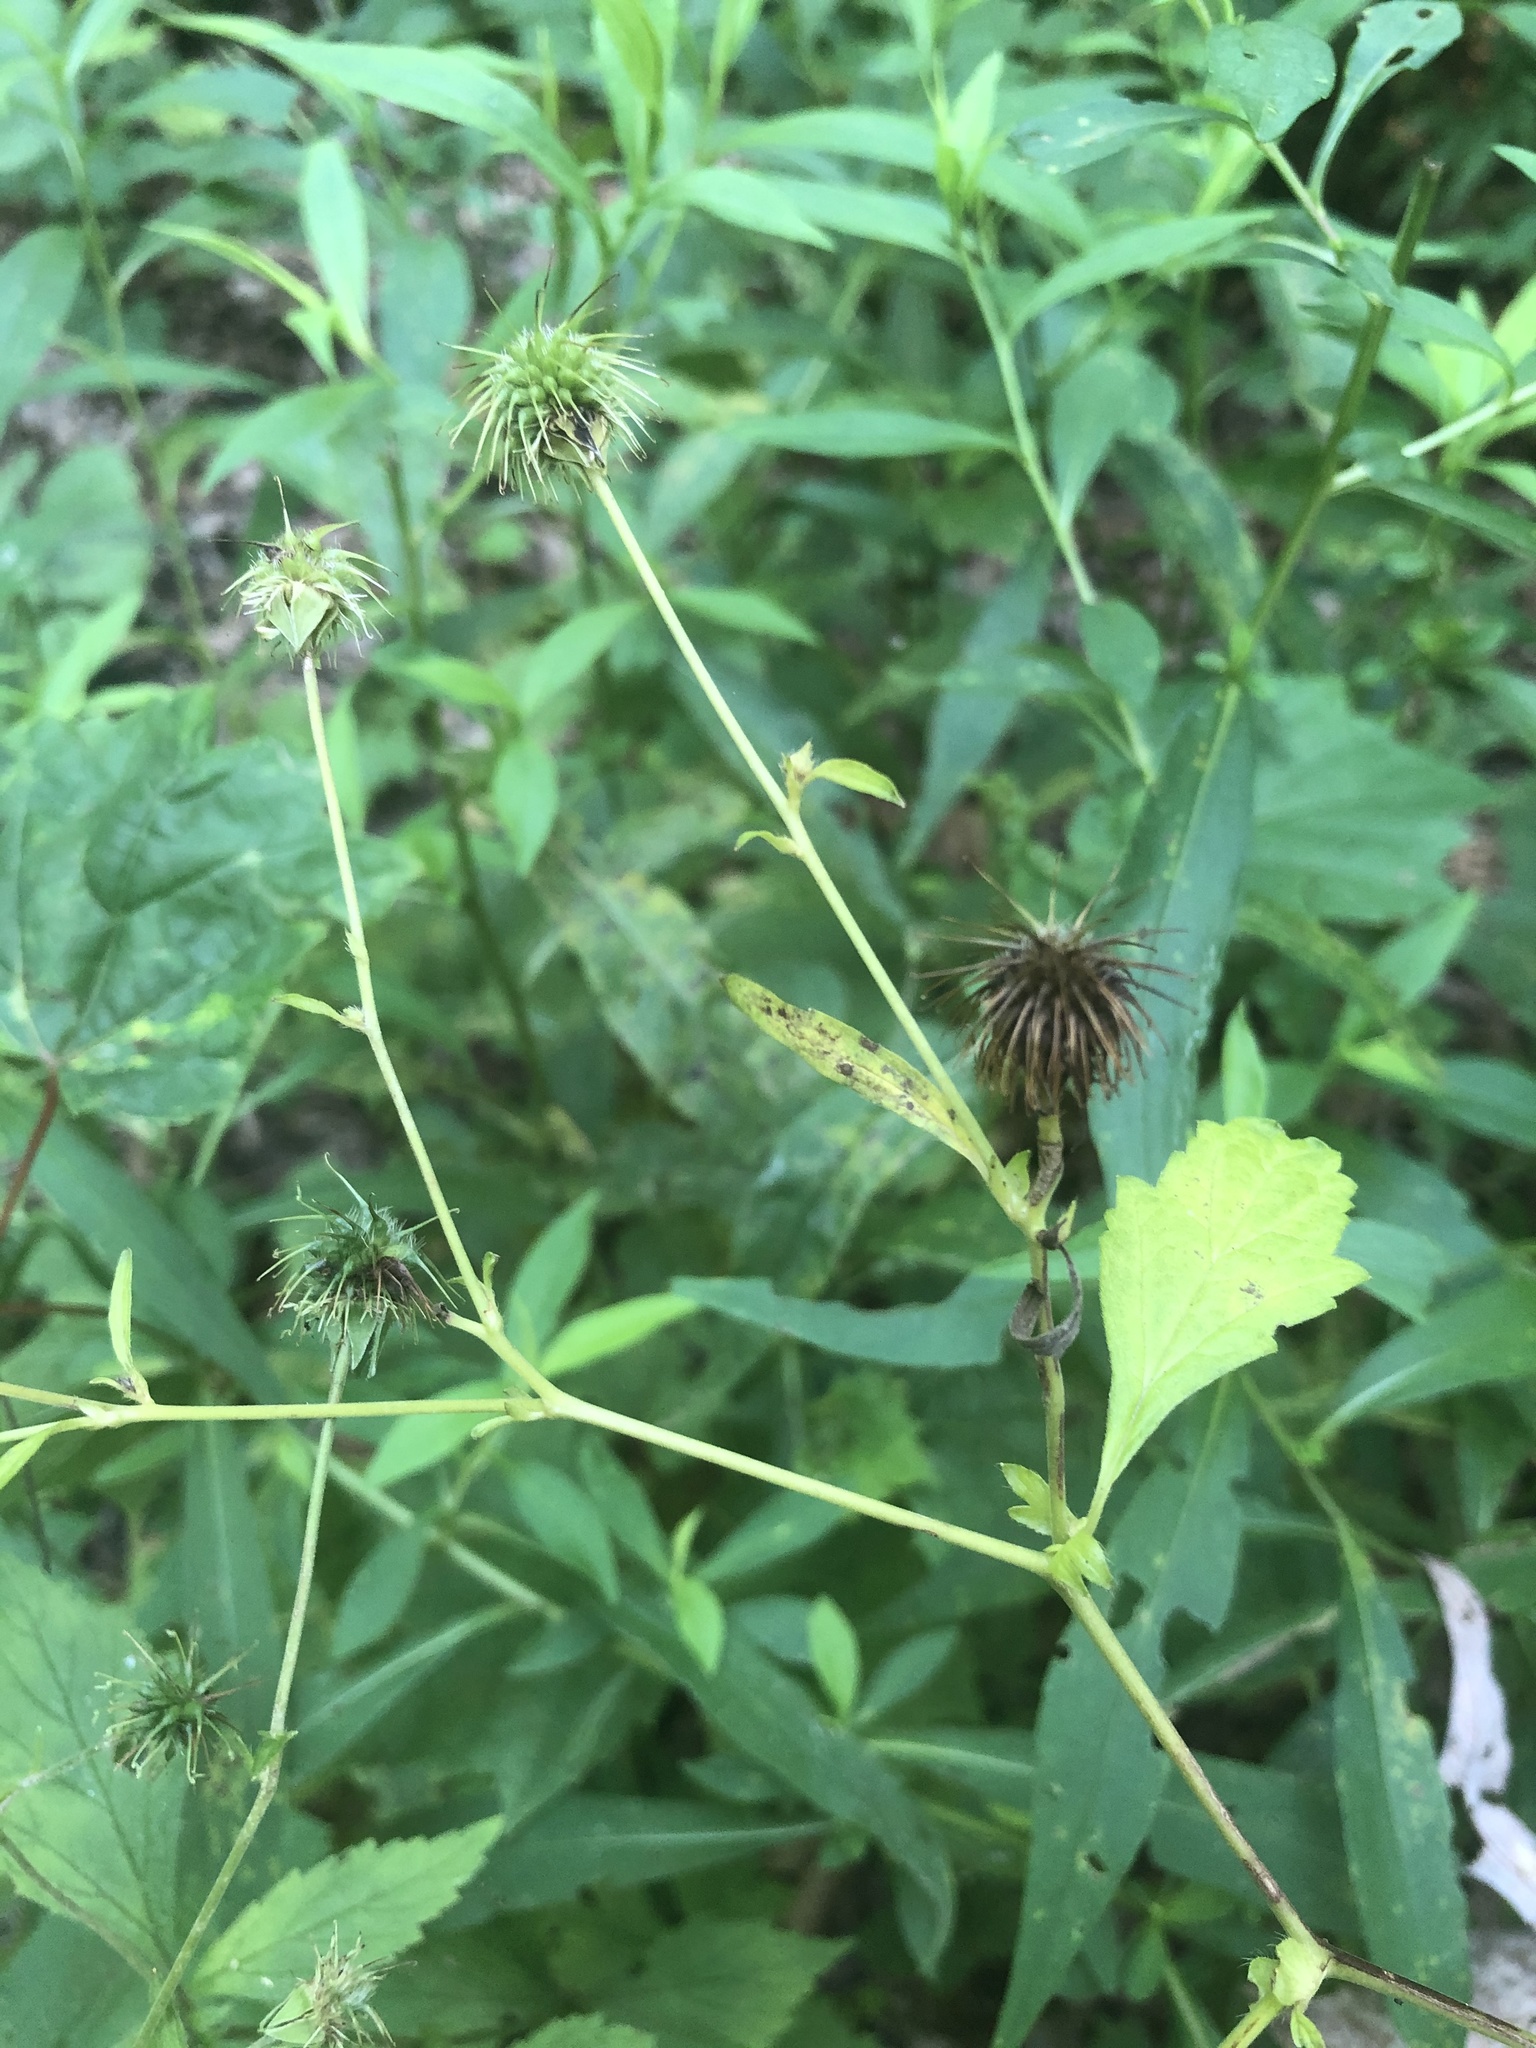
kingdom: Plantae
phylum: Tracheophyta
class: Magnoliopsida
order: Rosales
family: Rosaceae
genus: Geum
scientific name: Geum canadense
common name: White avens
